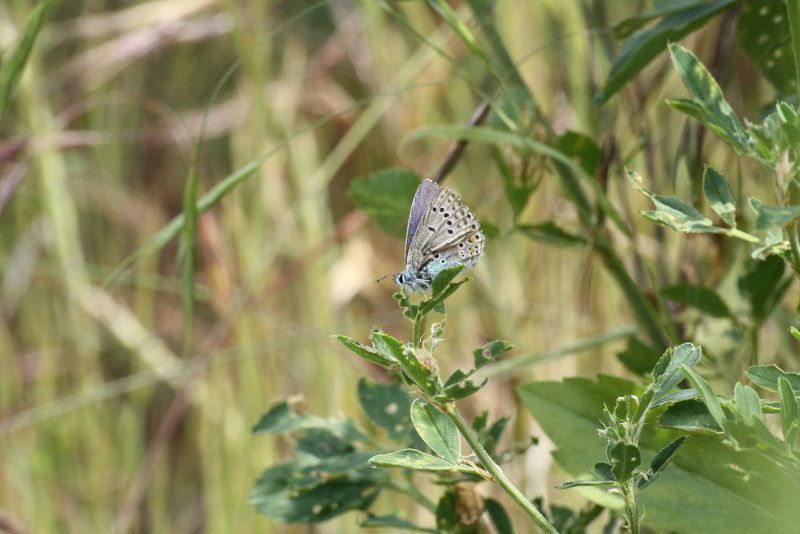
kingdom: Animalia
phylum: Arthropoda
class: Insecta
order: Lepidoptera
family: Lycaenidae
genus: Polyommatus
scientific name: Polyommatus icarus
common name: Common blue
